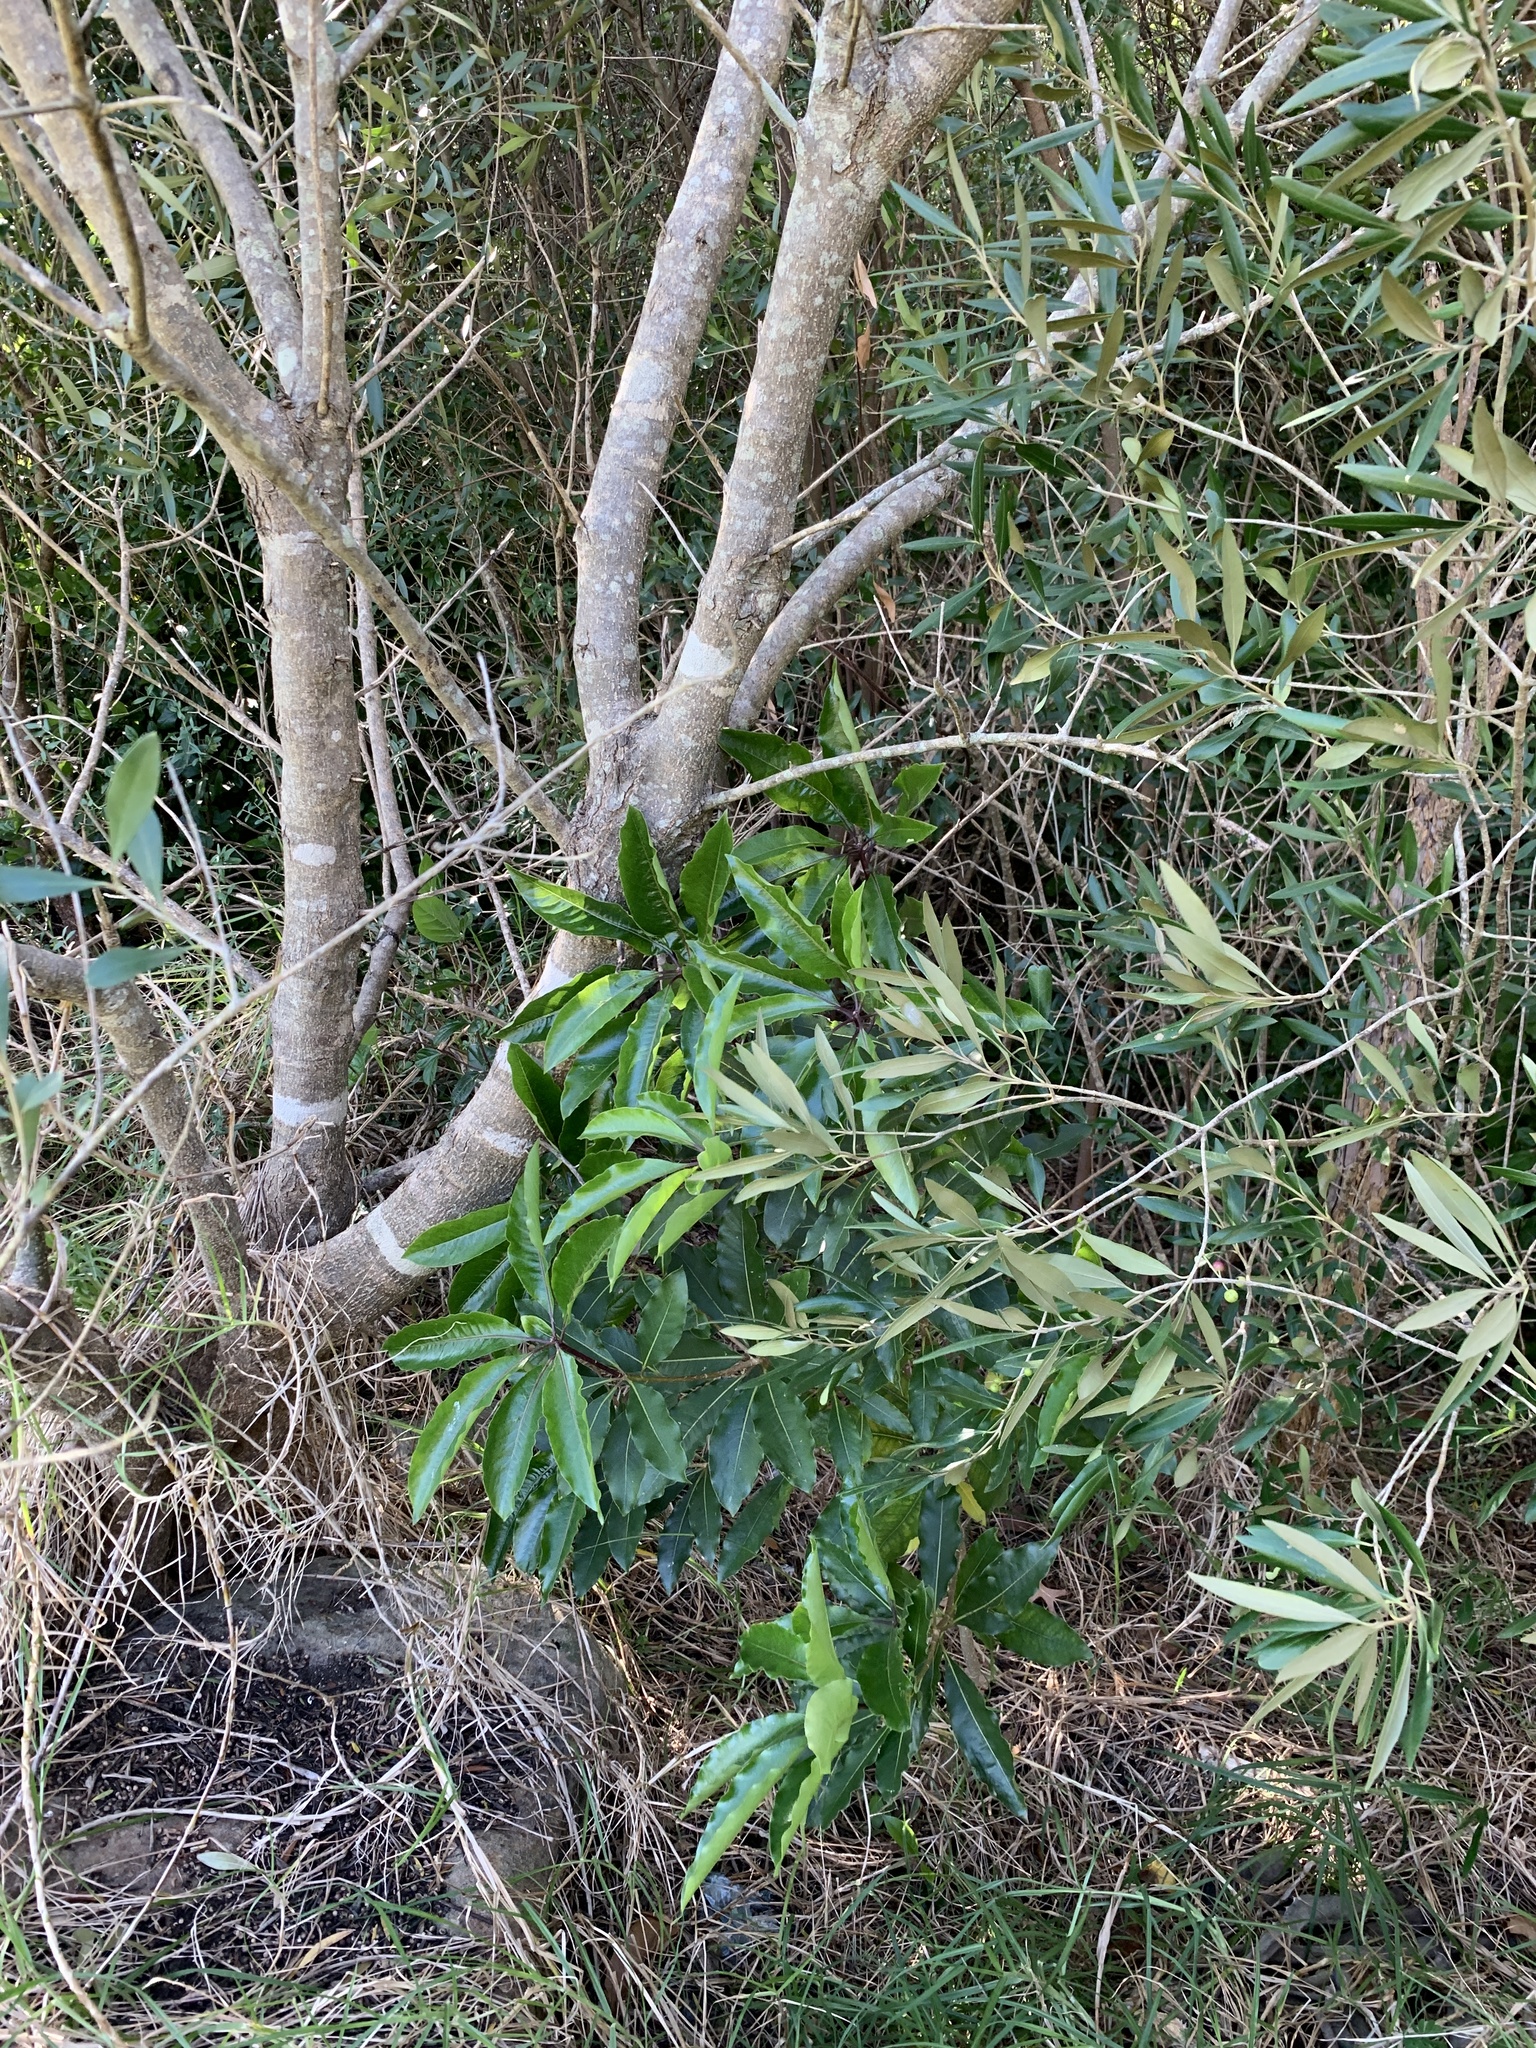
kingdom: Plantae
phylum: Tracheophyta
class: Magnoliopsida
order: Apiales
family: Pittosporaceae
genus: Pittosporum
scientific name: Pittosporum undulatum
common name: Australian cheesewood
